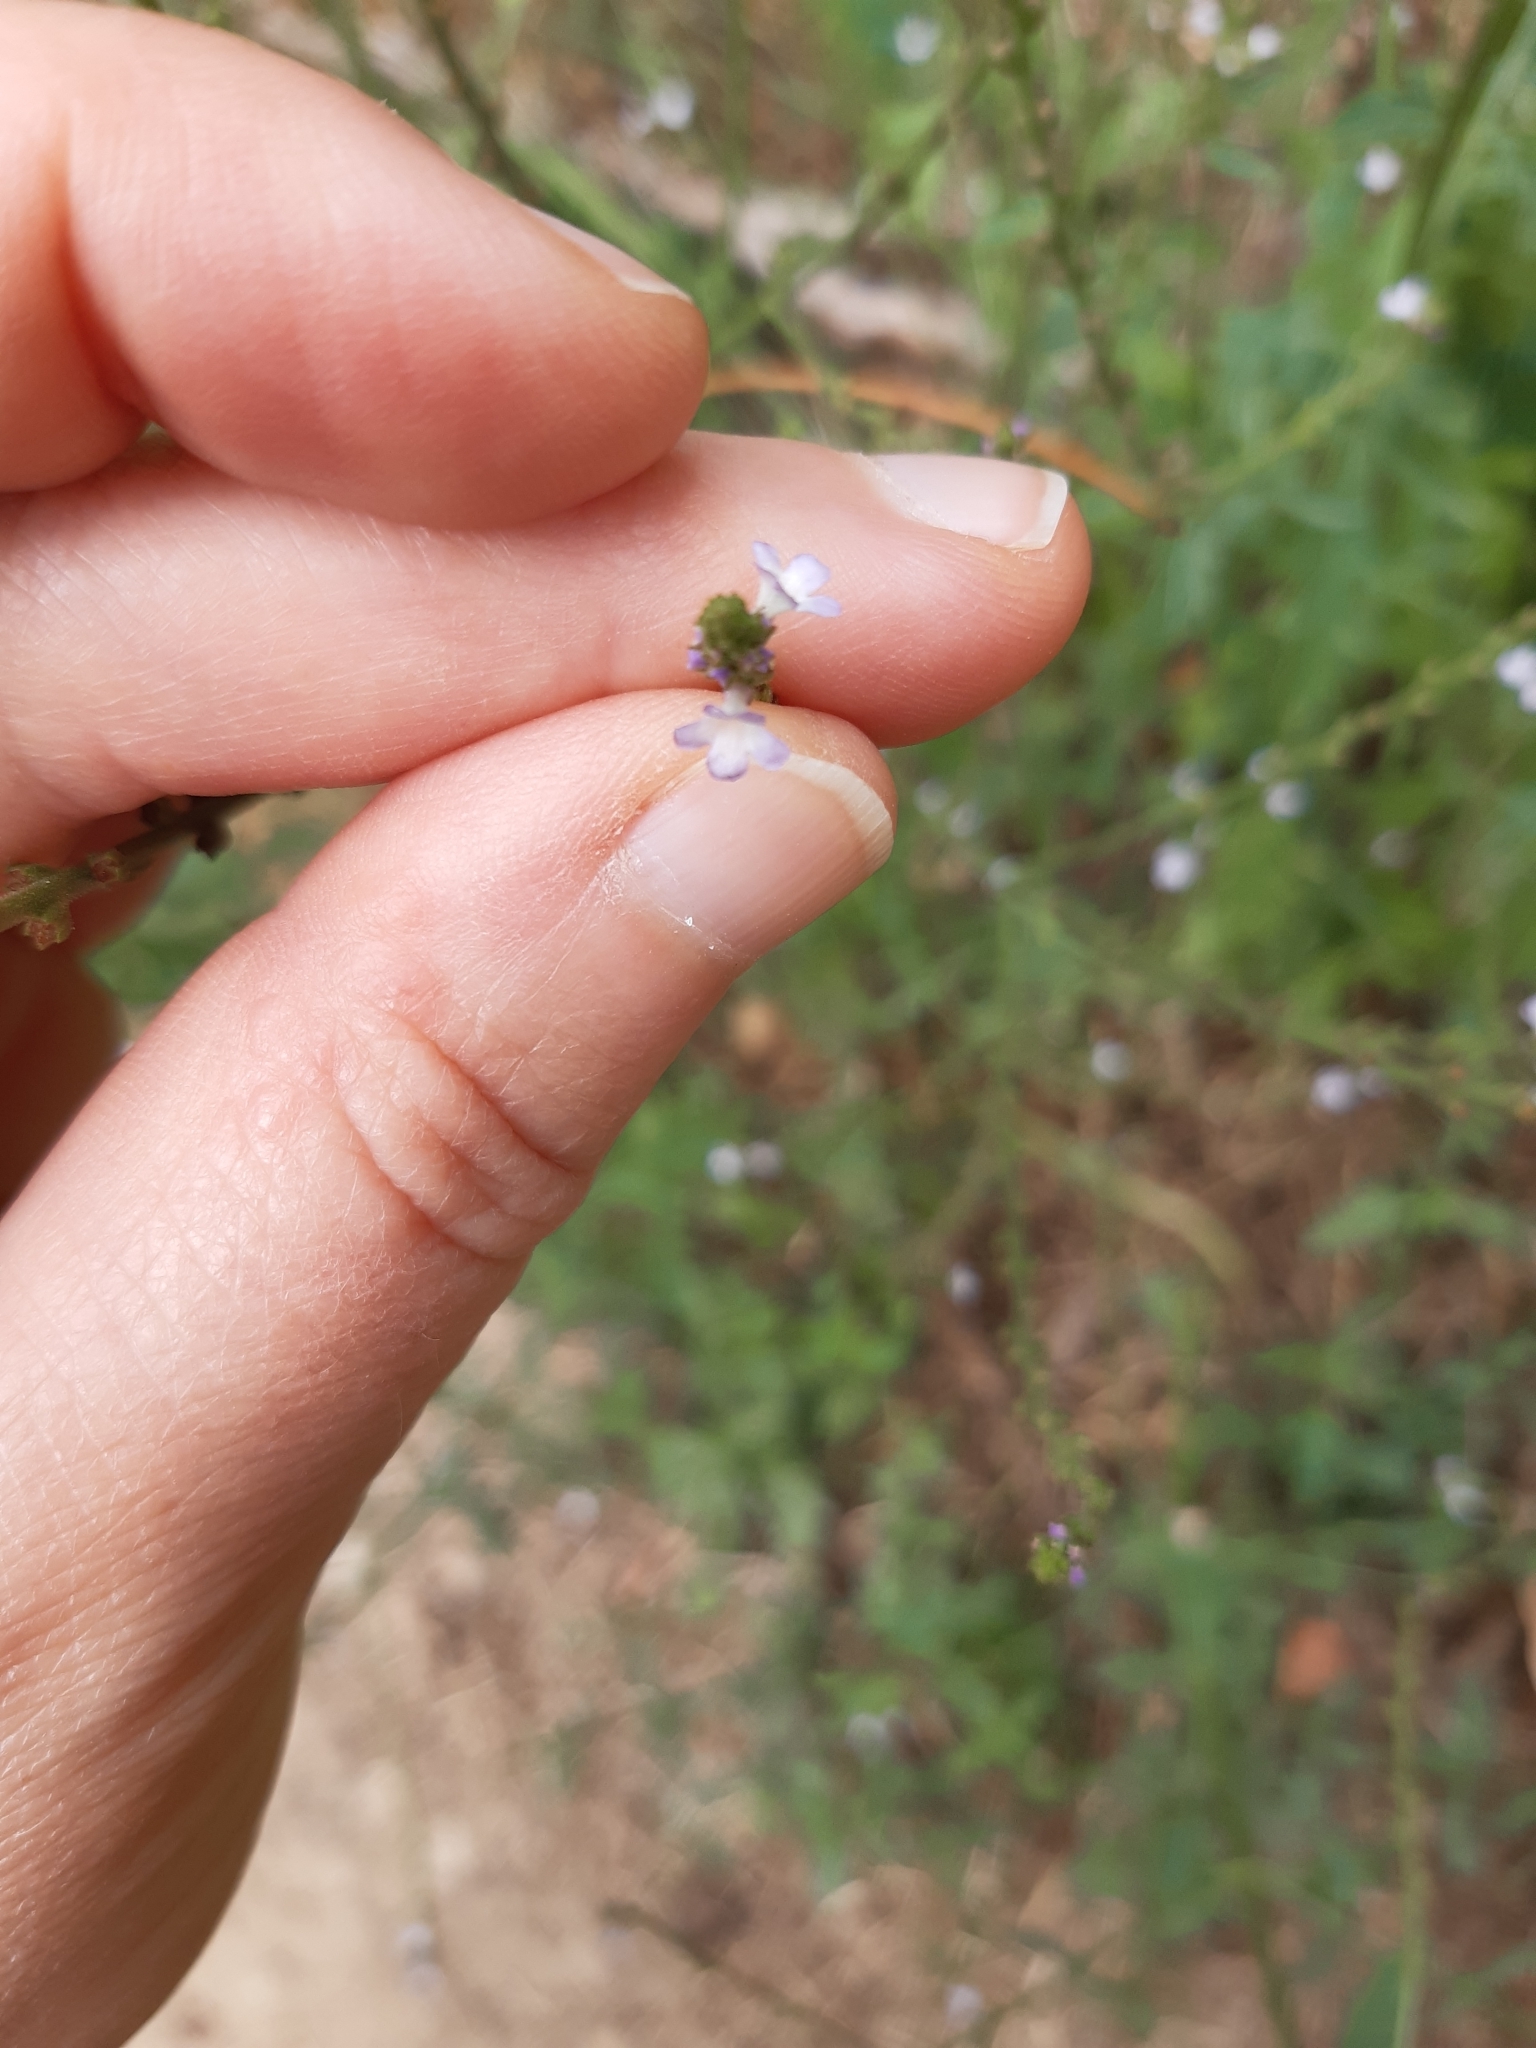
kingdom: Plantae
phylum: Tracheophyta
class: Magnoliopsida
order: Lamiales
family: Verbenaceae
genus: Verbena
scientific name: Verbena officinalis
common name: Vervain
